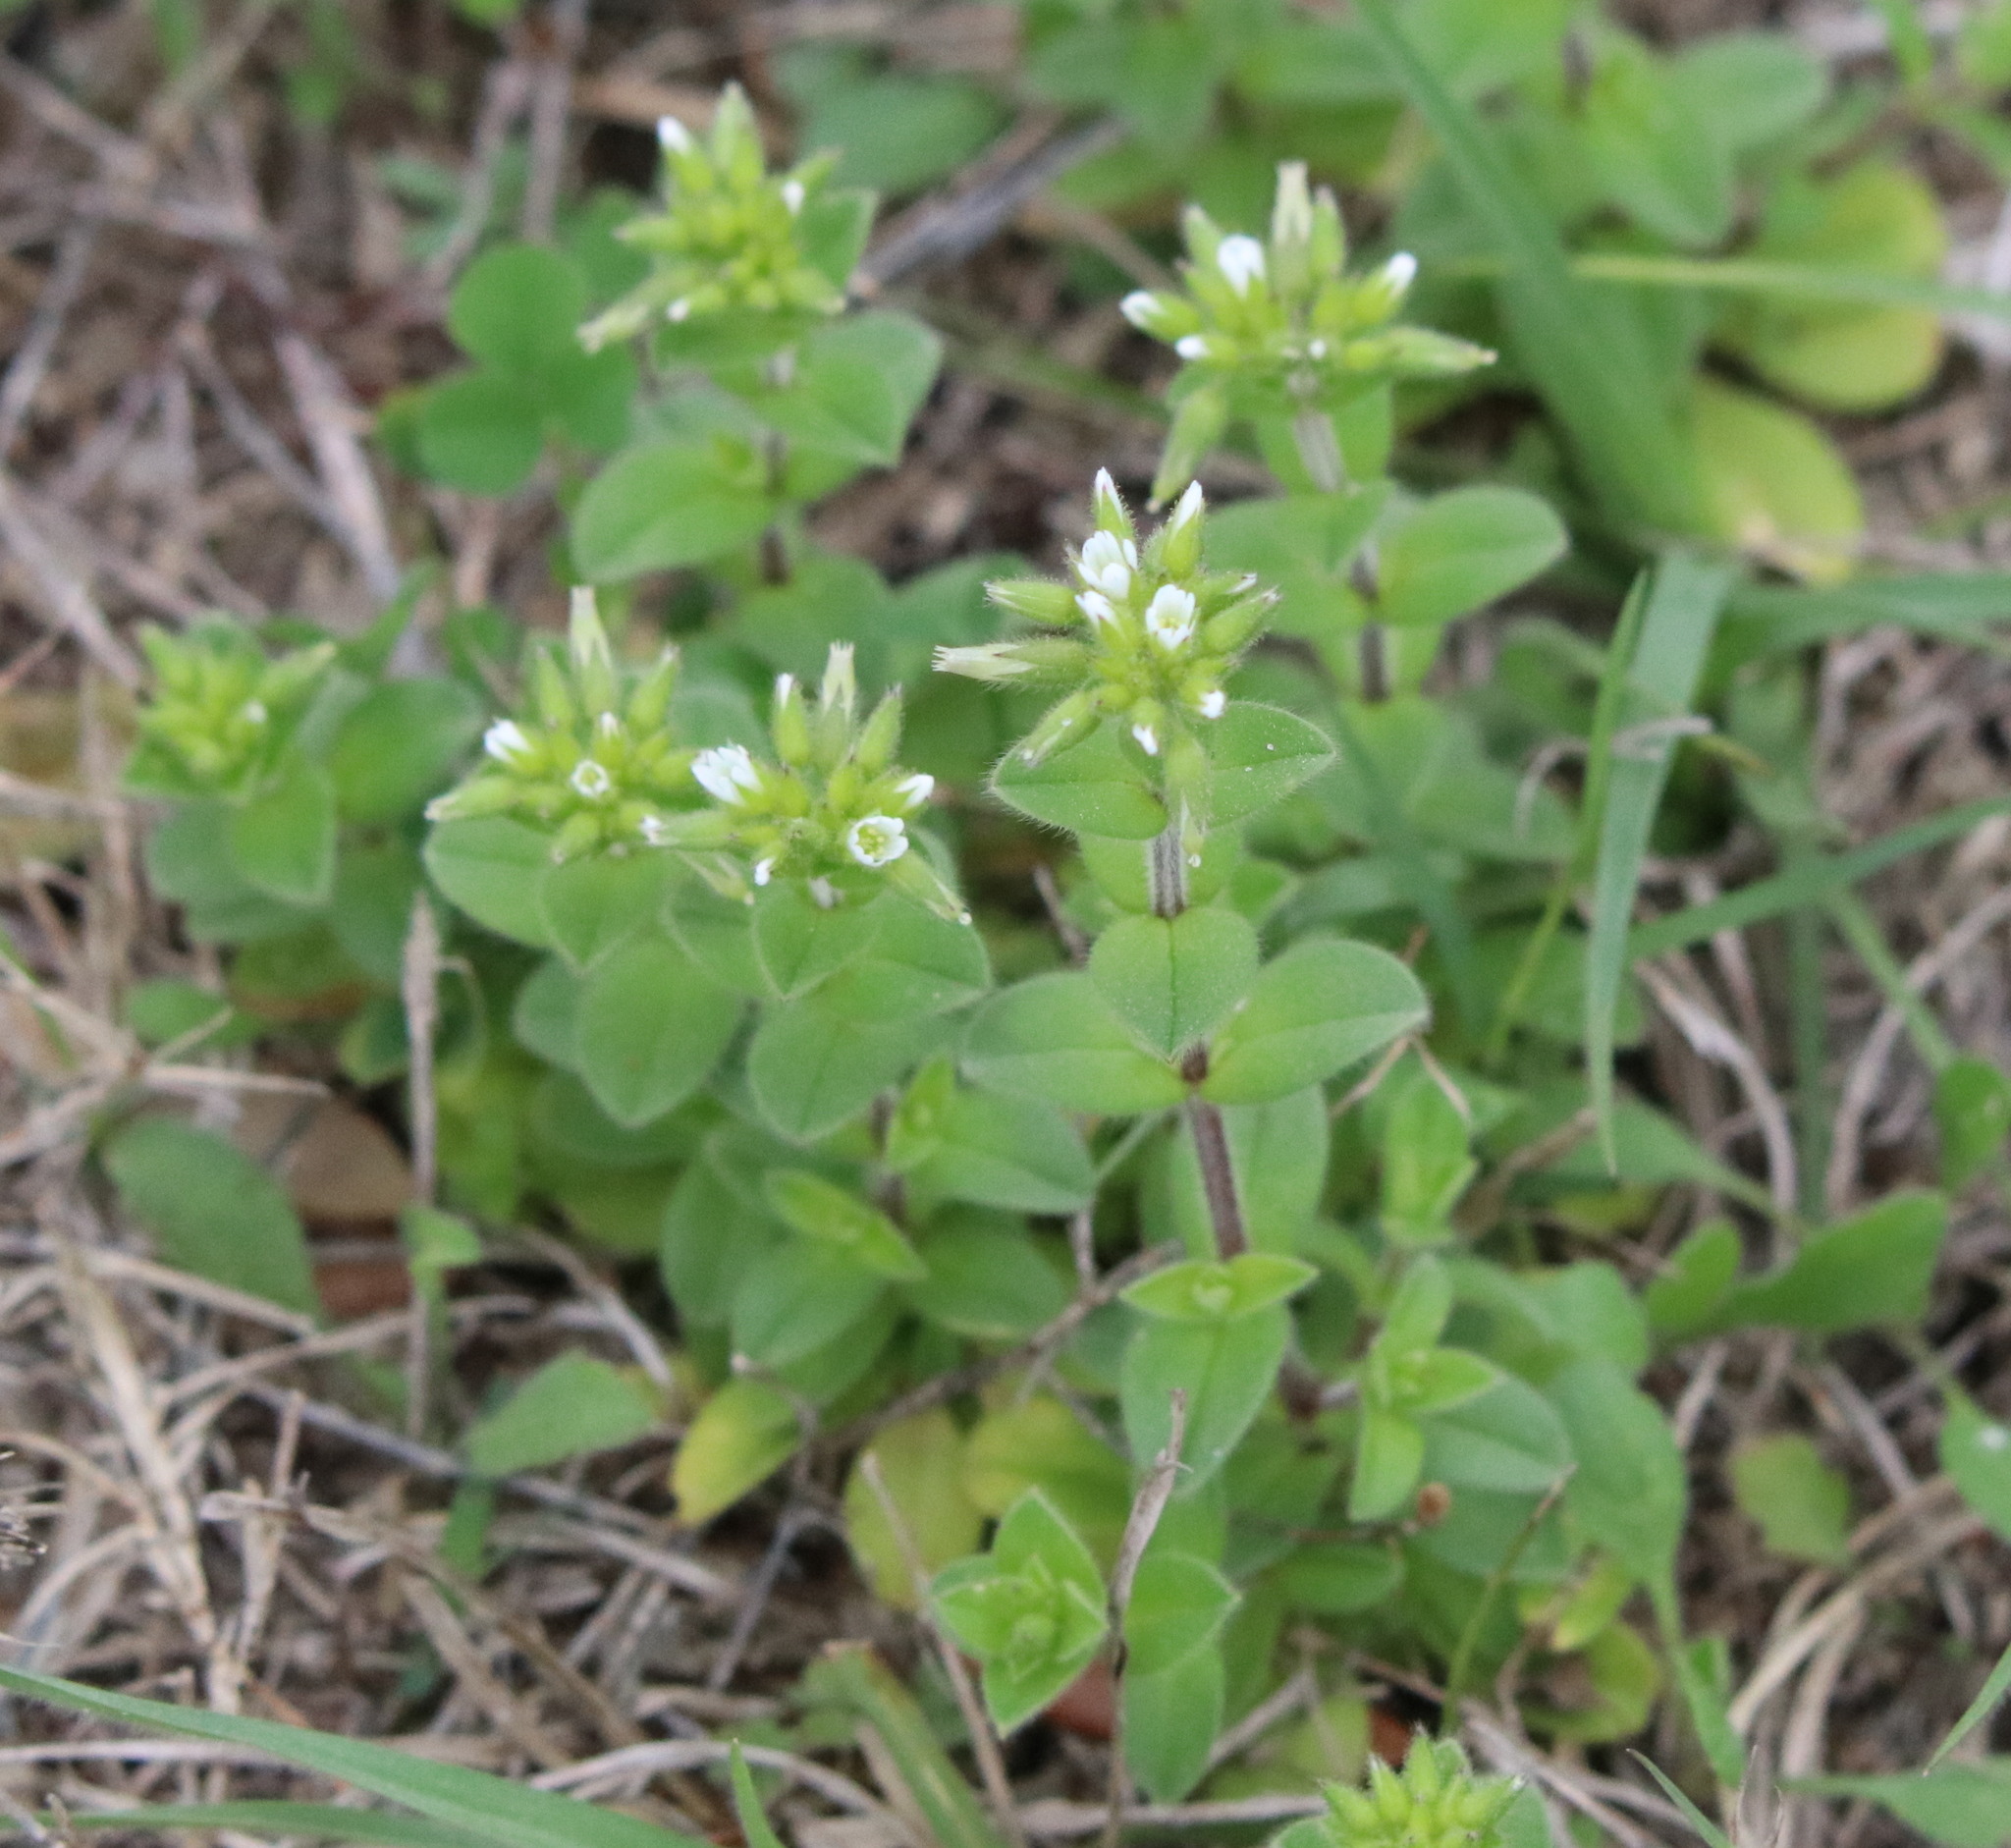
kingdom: Plantae
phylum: Tracheophyta
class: Magnoliopsida
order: Caryophyllales
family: Caryophyllaceae
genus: Cerastium
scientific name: Cerastium glomeratum
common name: Sticky chickweed
